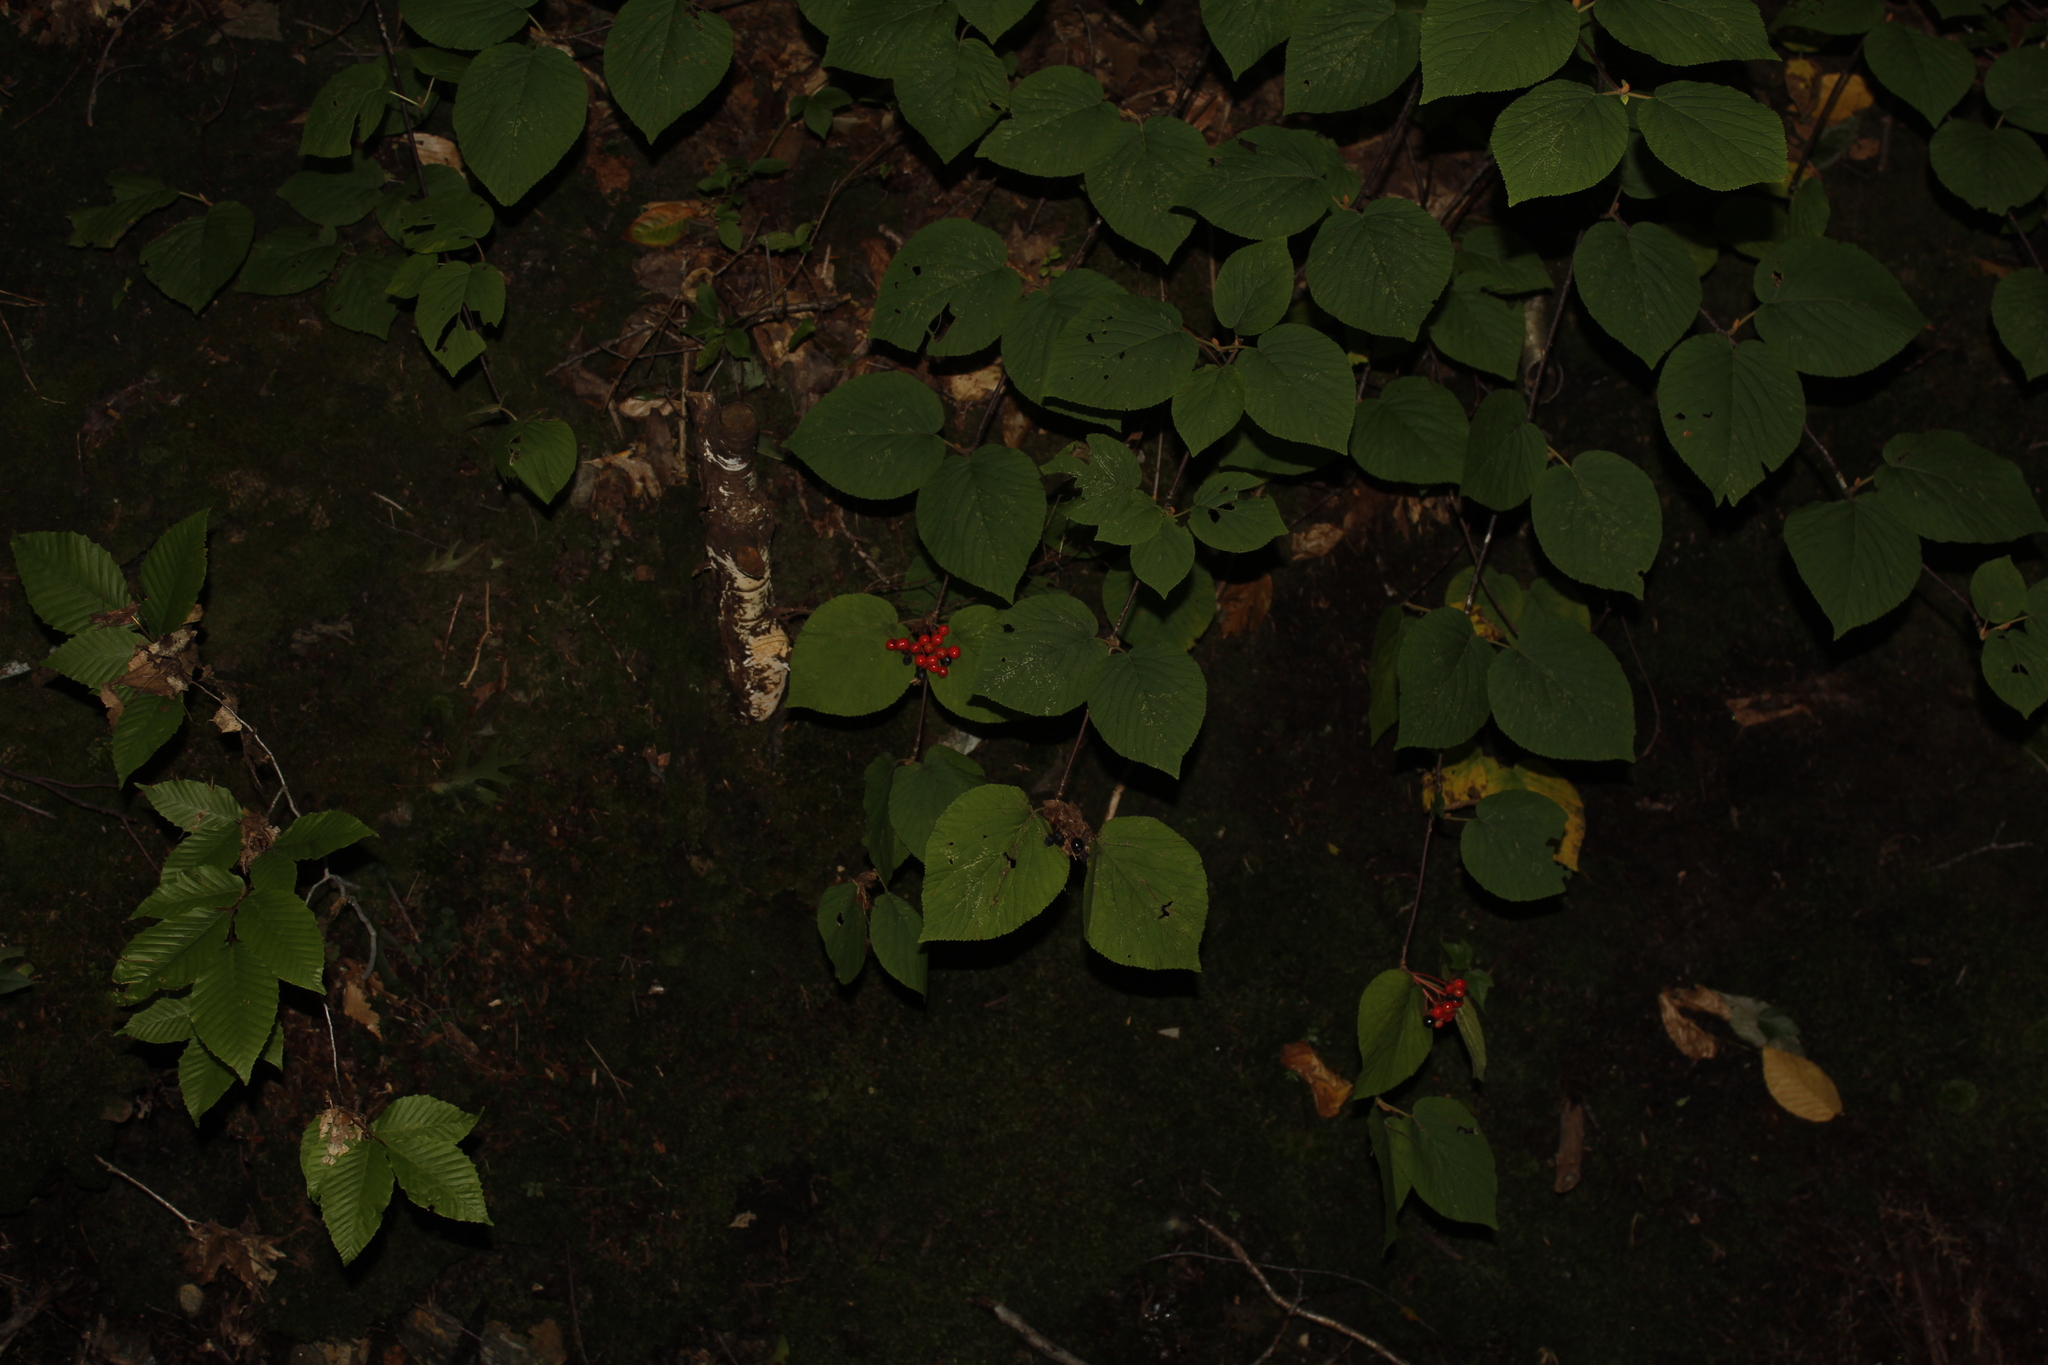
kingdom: Plantae
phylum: Tracheophyta
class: Magnoliopsida
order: Dipsacales
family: Viburnaceae
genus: Viburnum
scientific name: Viburnum lantanoides
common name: Hobblebush
